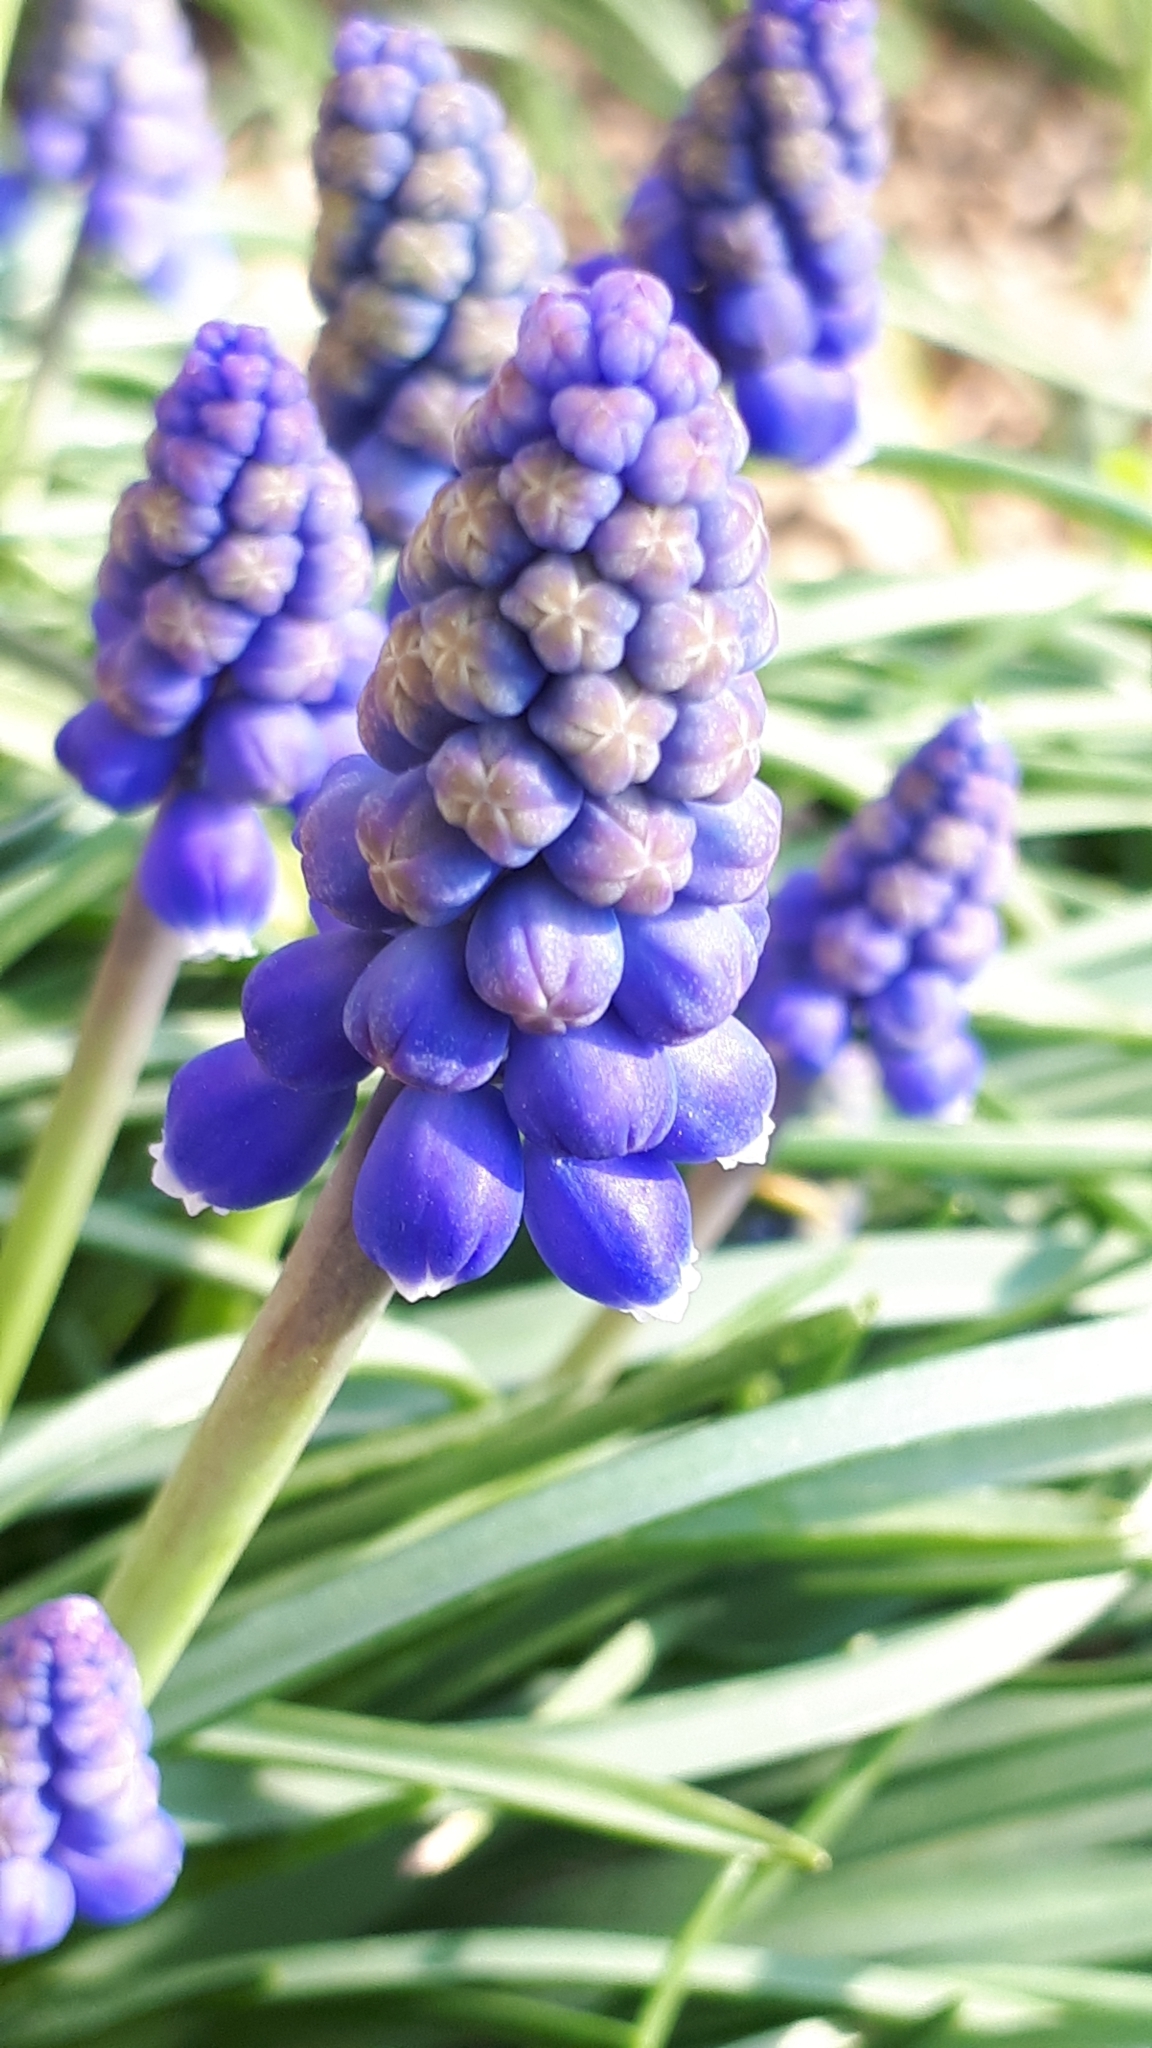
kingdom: Plantae
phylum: Tracheophyta
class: Liliopsida
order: Asparagales
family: Asparagaceae
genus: Muscari
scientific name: Muscari armeniacum
